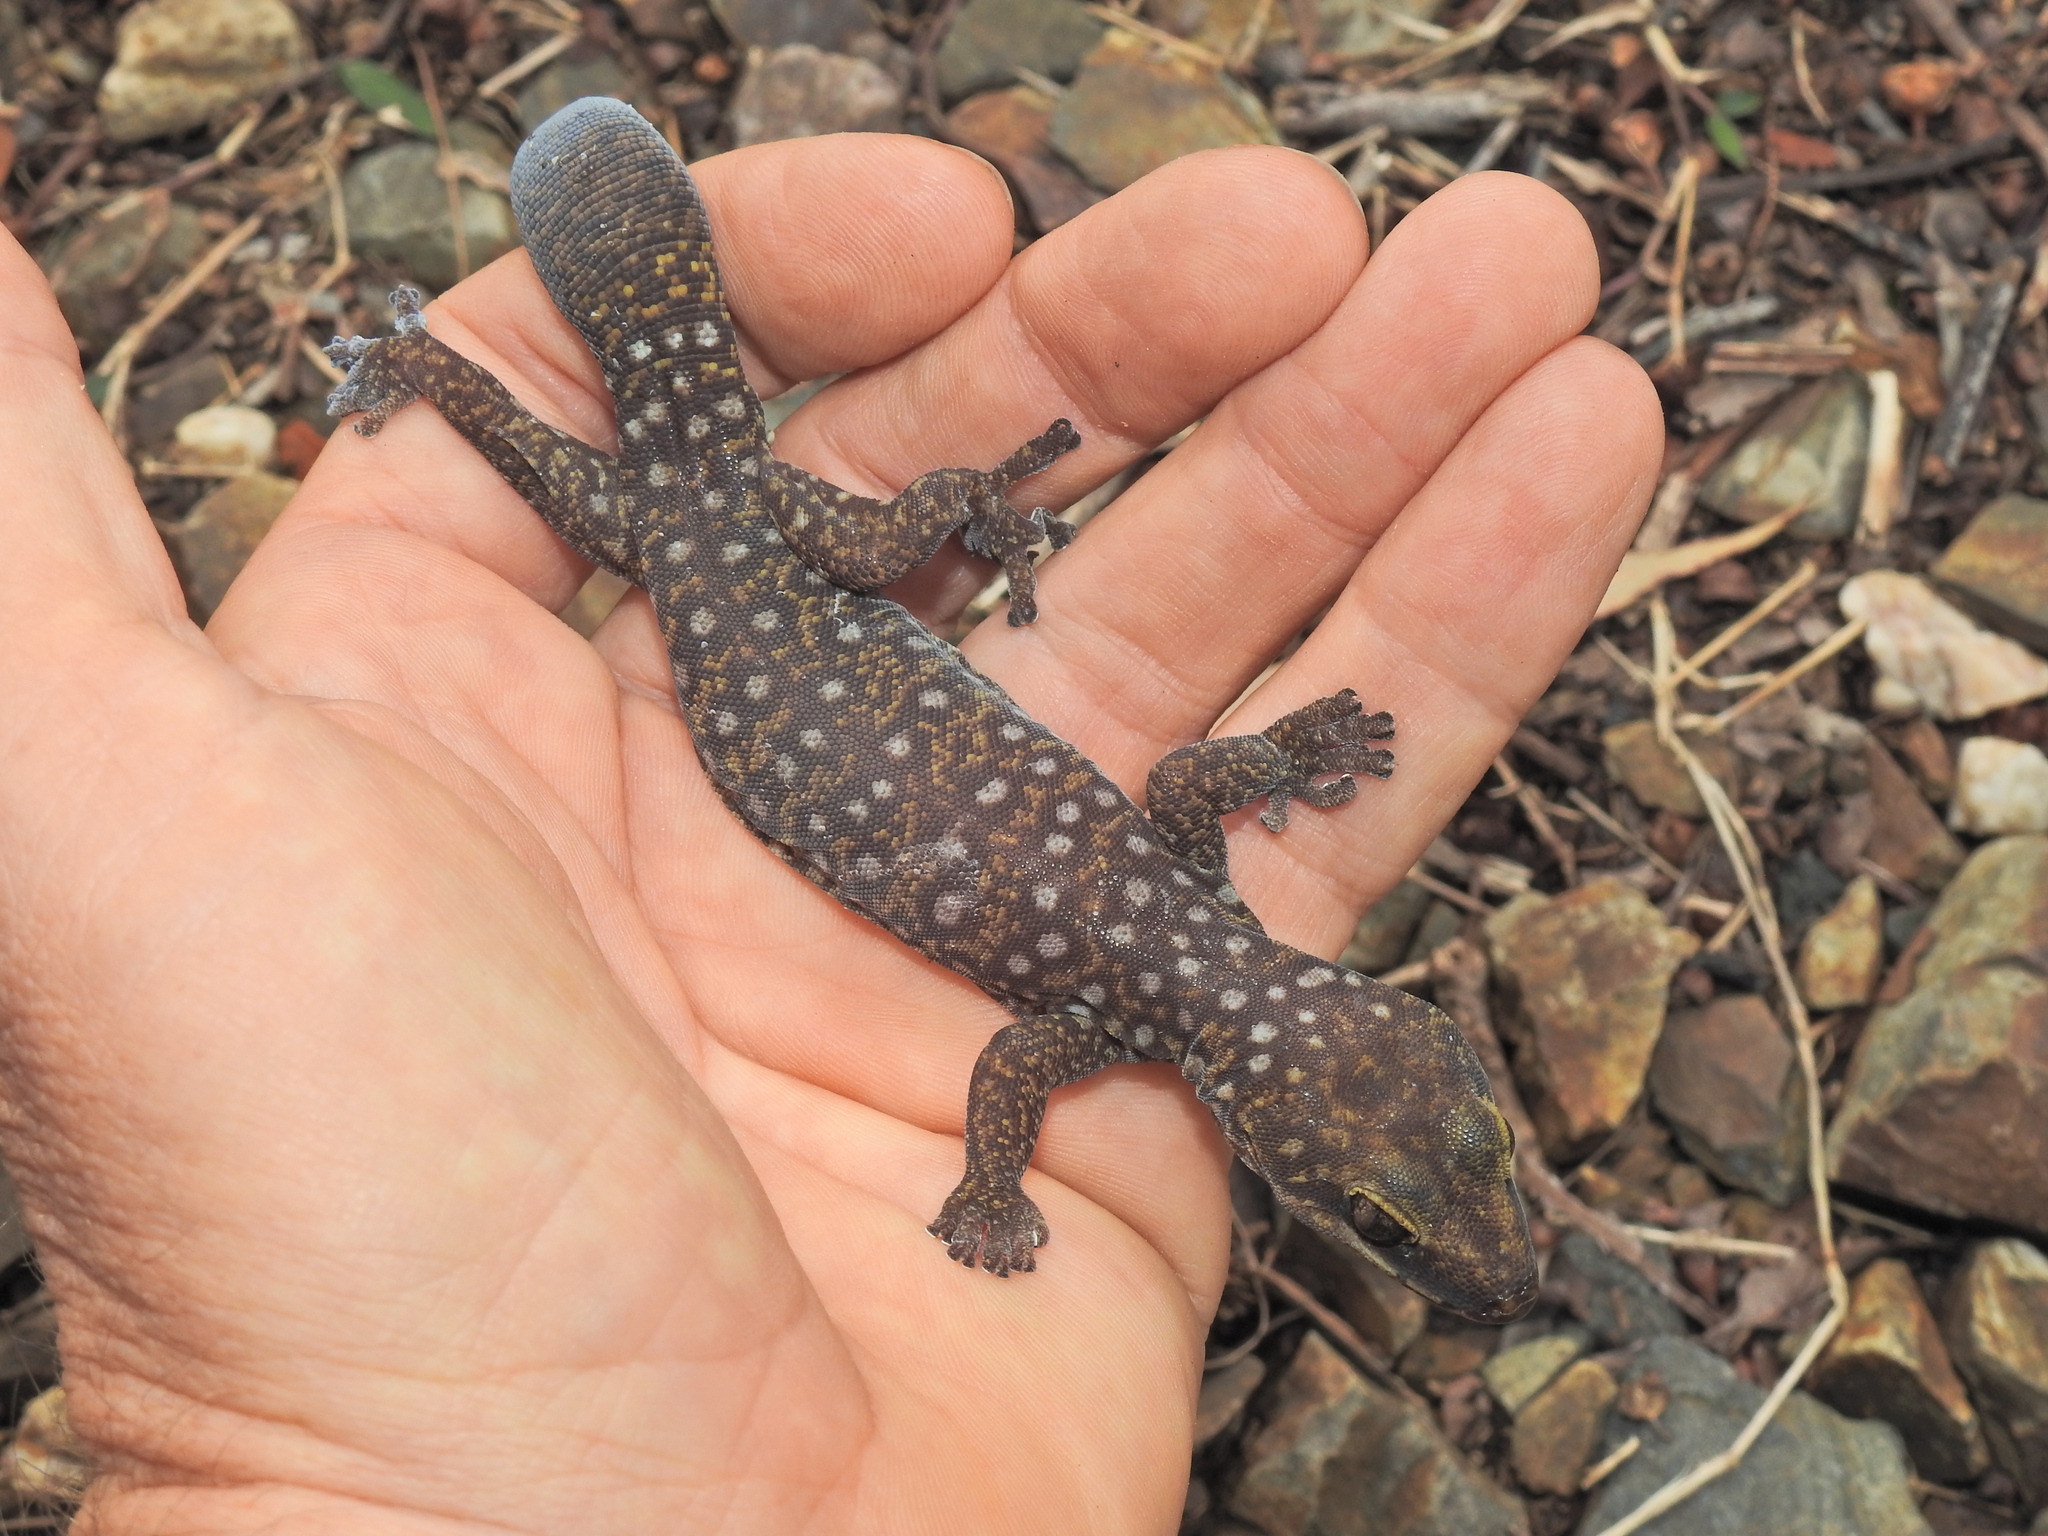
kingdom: Animalia
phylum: Chordata
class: Squamata
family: Diplodactylidae
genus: Oedura
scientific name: Oedura tryoni
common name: Southern spotted velvet gecko
